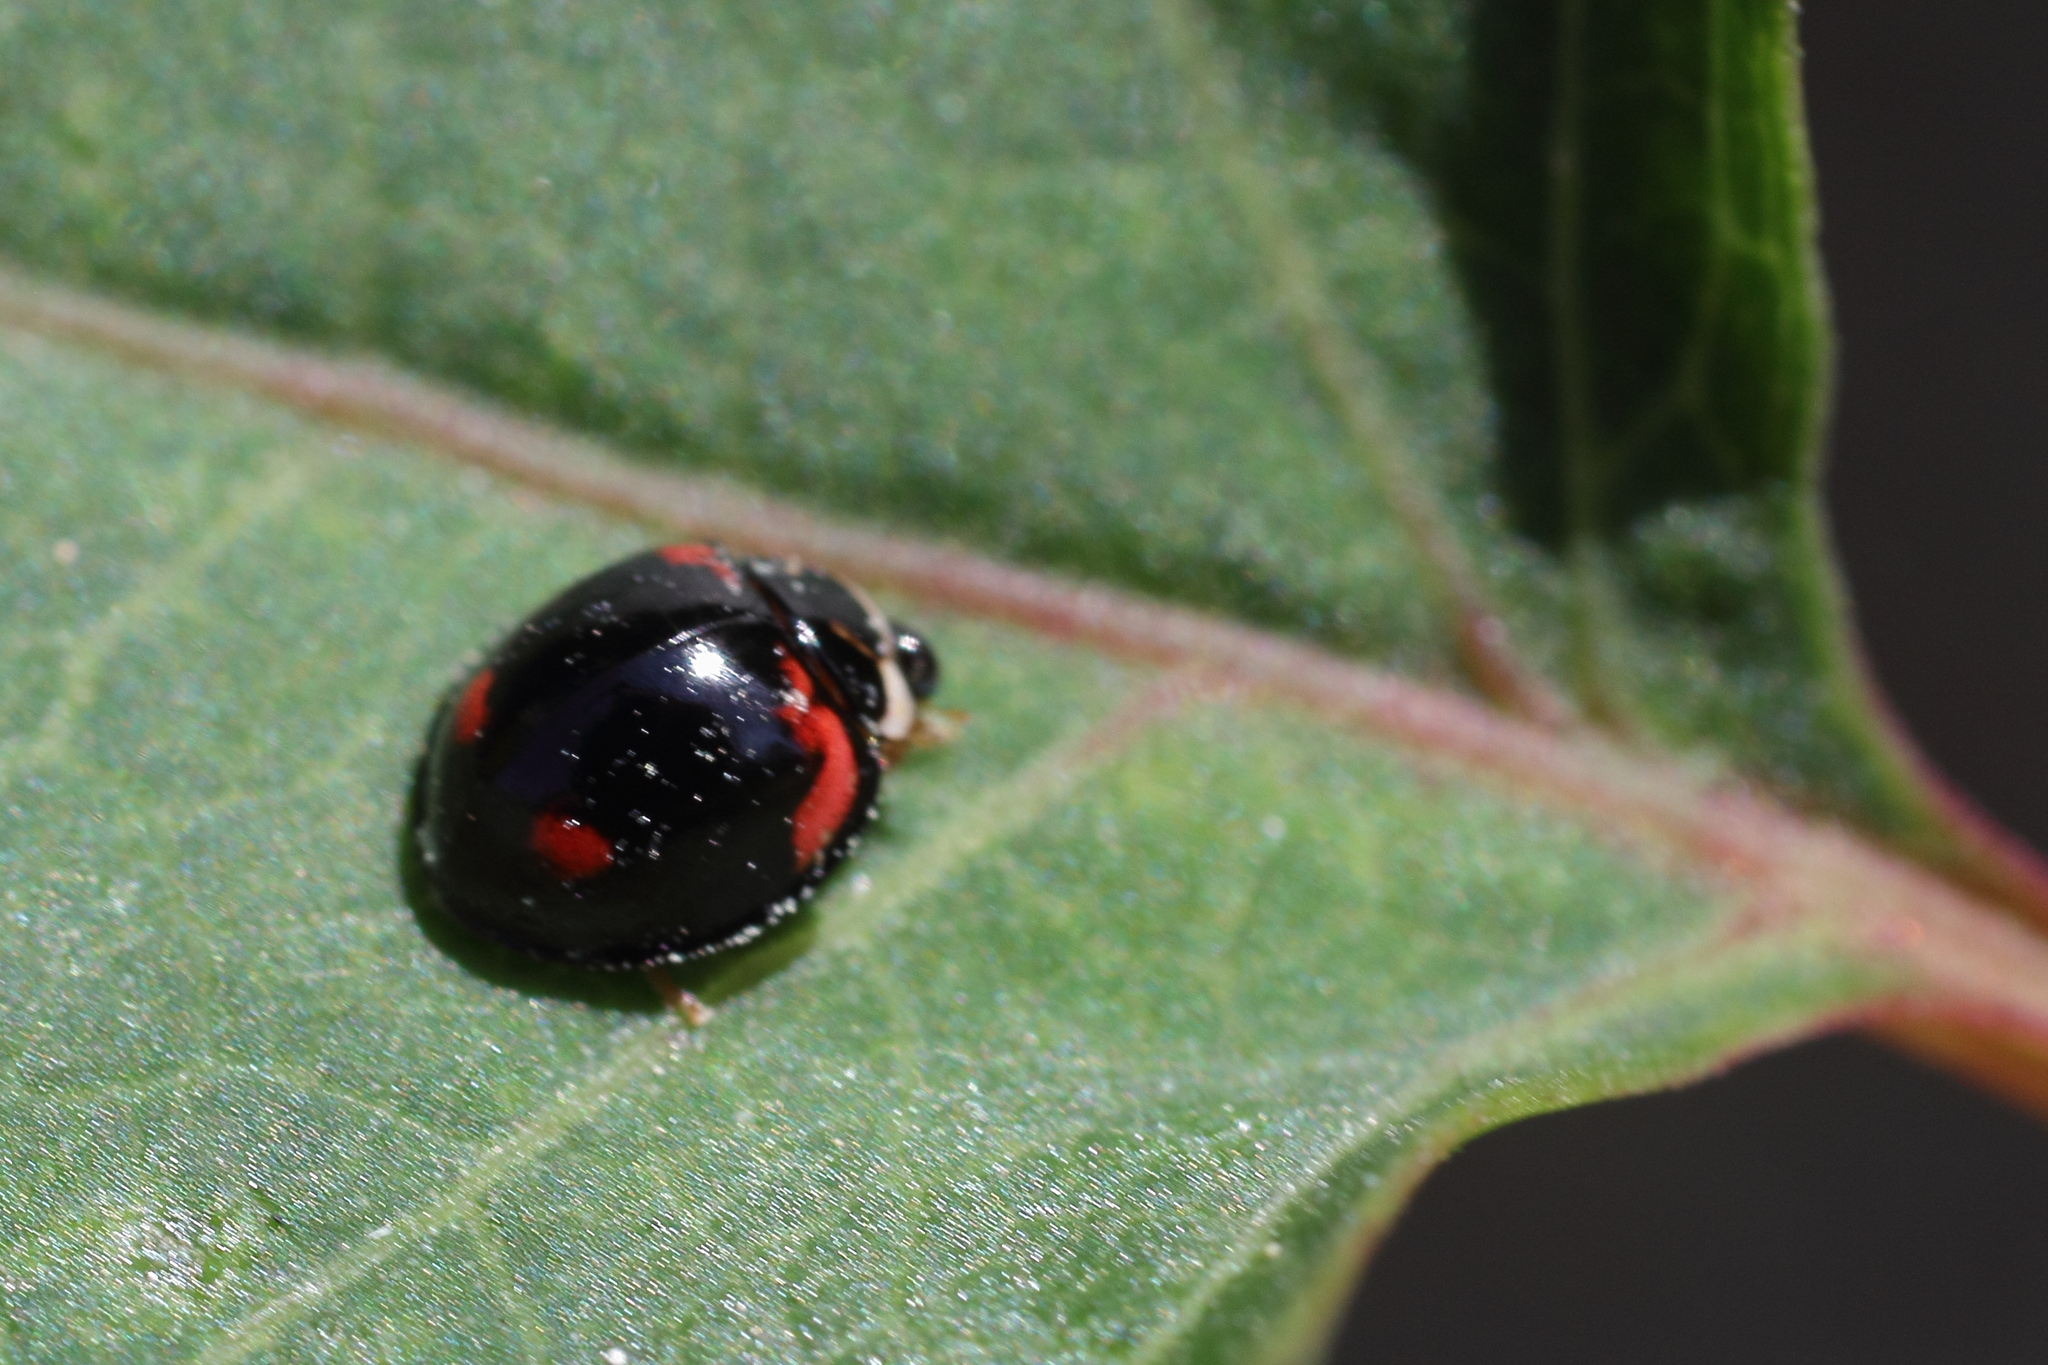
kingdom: Animalia
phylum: Arthropoda
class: Insecta
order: Coleoptera
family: Coccinellidae
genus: Cheilomenes
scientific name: Cheilomenes sexmaculata
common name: Ladybird beetle
